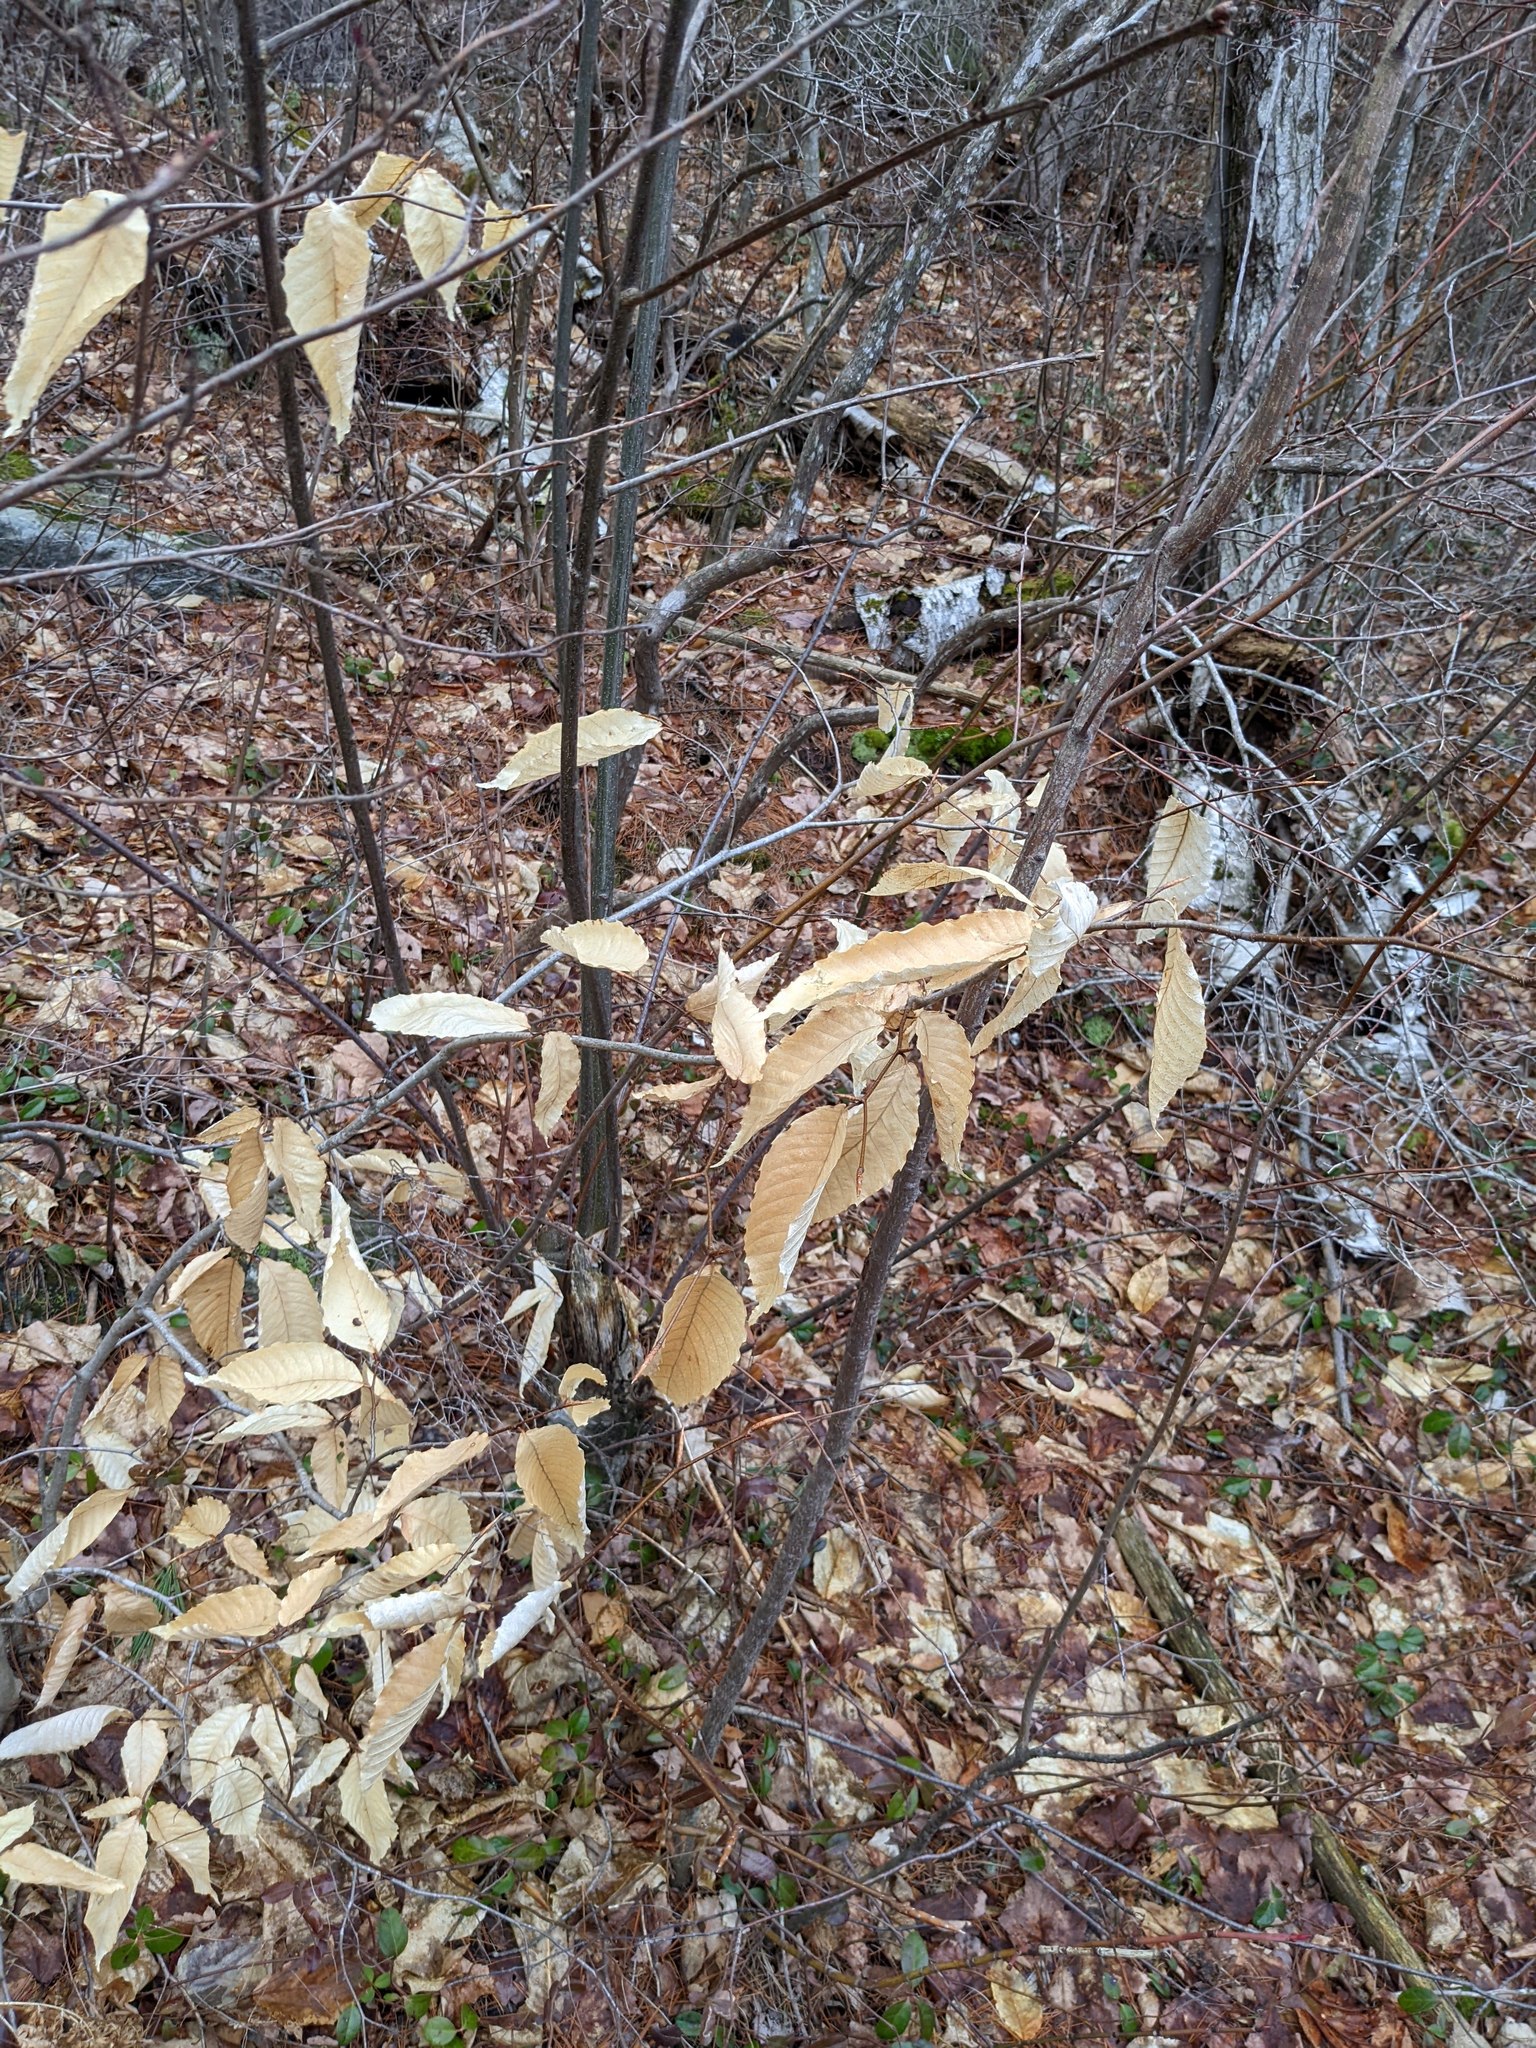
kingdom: Plantae
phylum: Tracheophyta
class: Magnoliopsida
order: Fagales
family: Fagaceae
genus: Fagus
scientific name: Fagus grandifolia
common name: American beech
